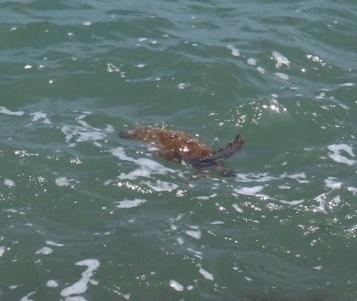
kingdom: Animalia
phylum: Chordata
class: Testudines
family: Cheloniidae
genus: Chelonia
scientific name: Chelonia mydas
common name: Green turtle
